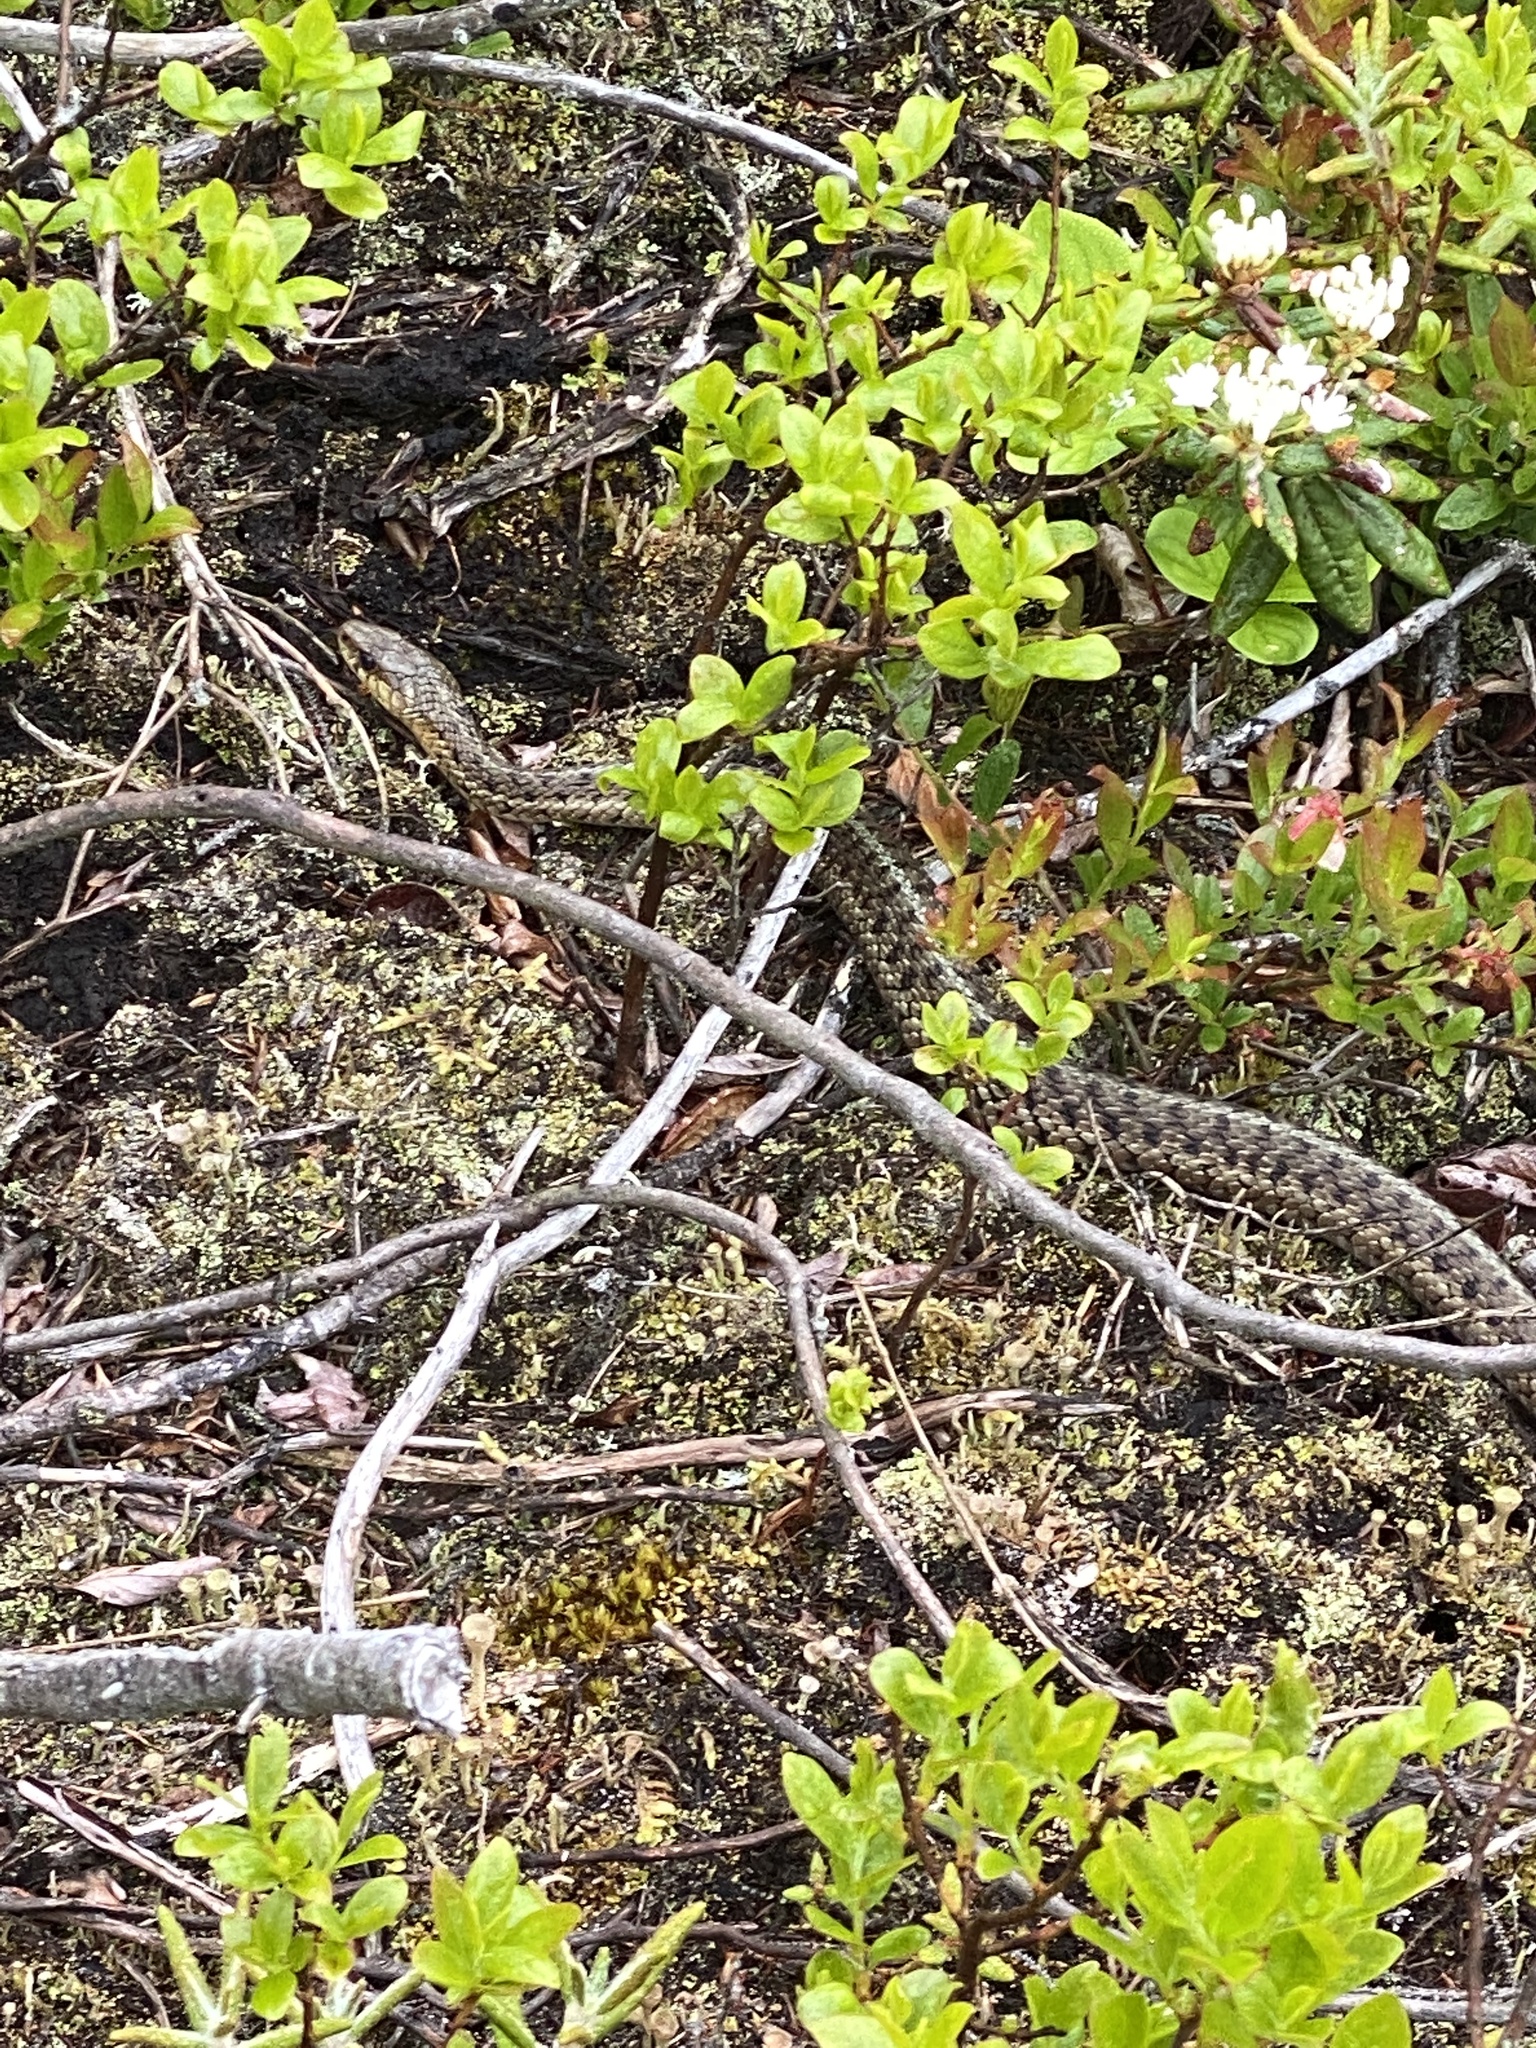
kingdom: Animalia
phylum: Chordata
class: Squamata
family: Colubridae
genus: Thamnophis
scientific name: Thamnophis sirtalis
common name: Common garter snake
